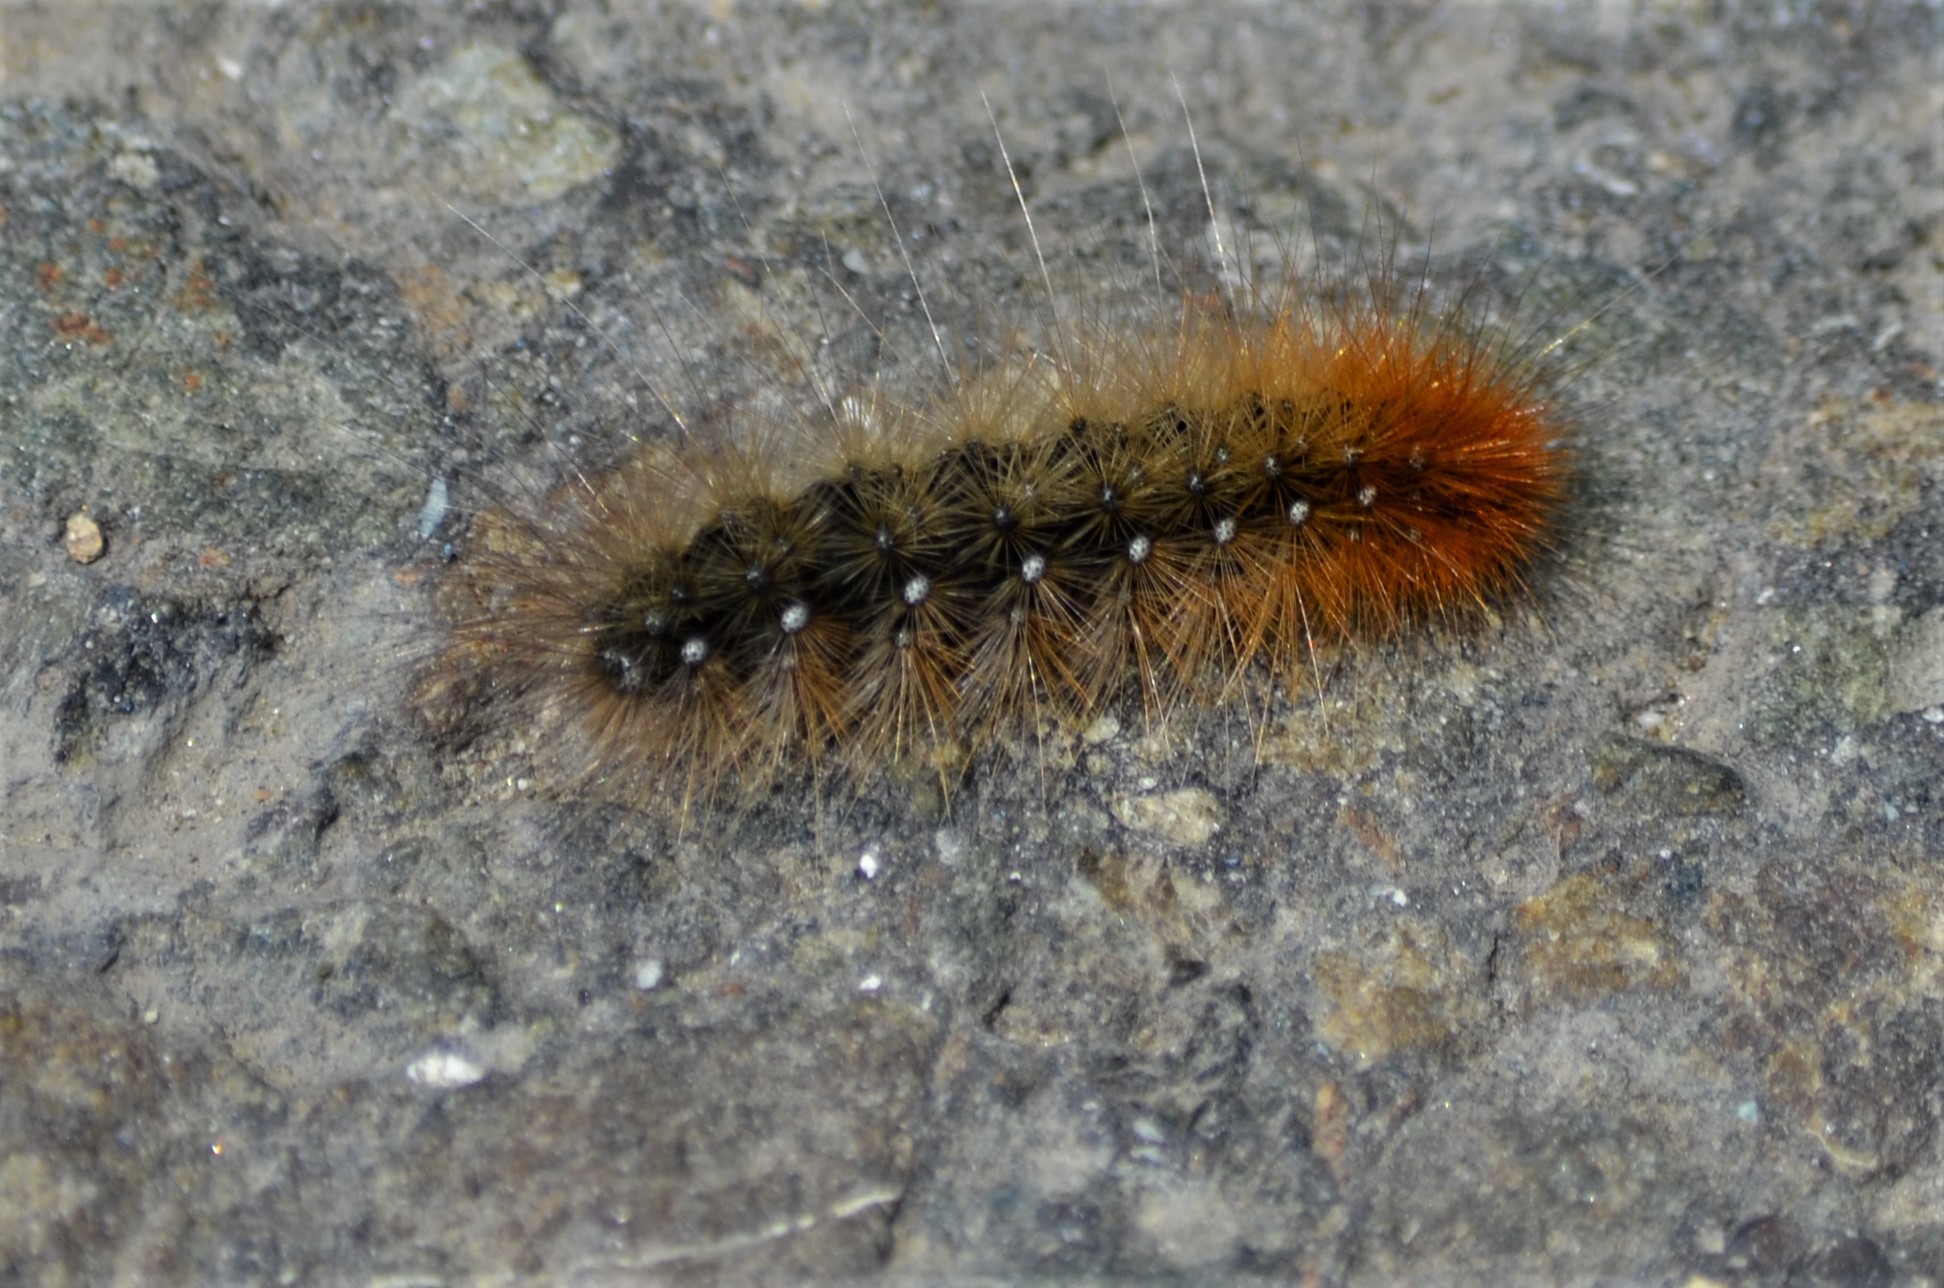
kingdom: Animalia
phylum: Arthropoda
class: Insecta
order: Lepidoptera
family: Erebidae
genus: Arctia
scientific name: Arctia caja
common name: Garden tiger
